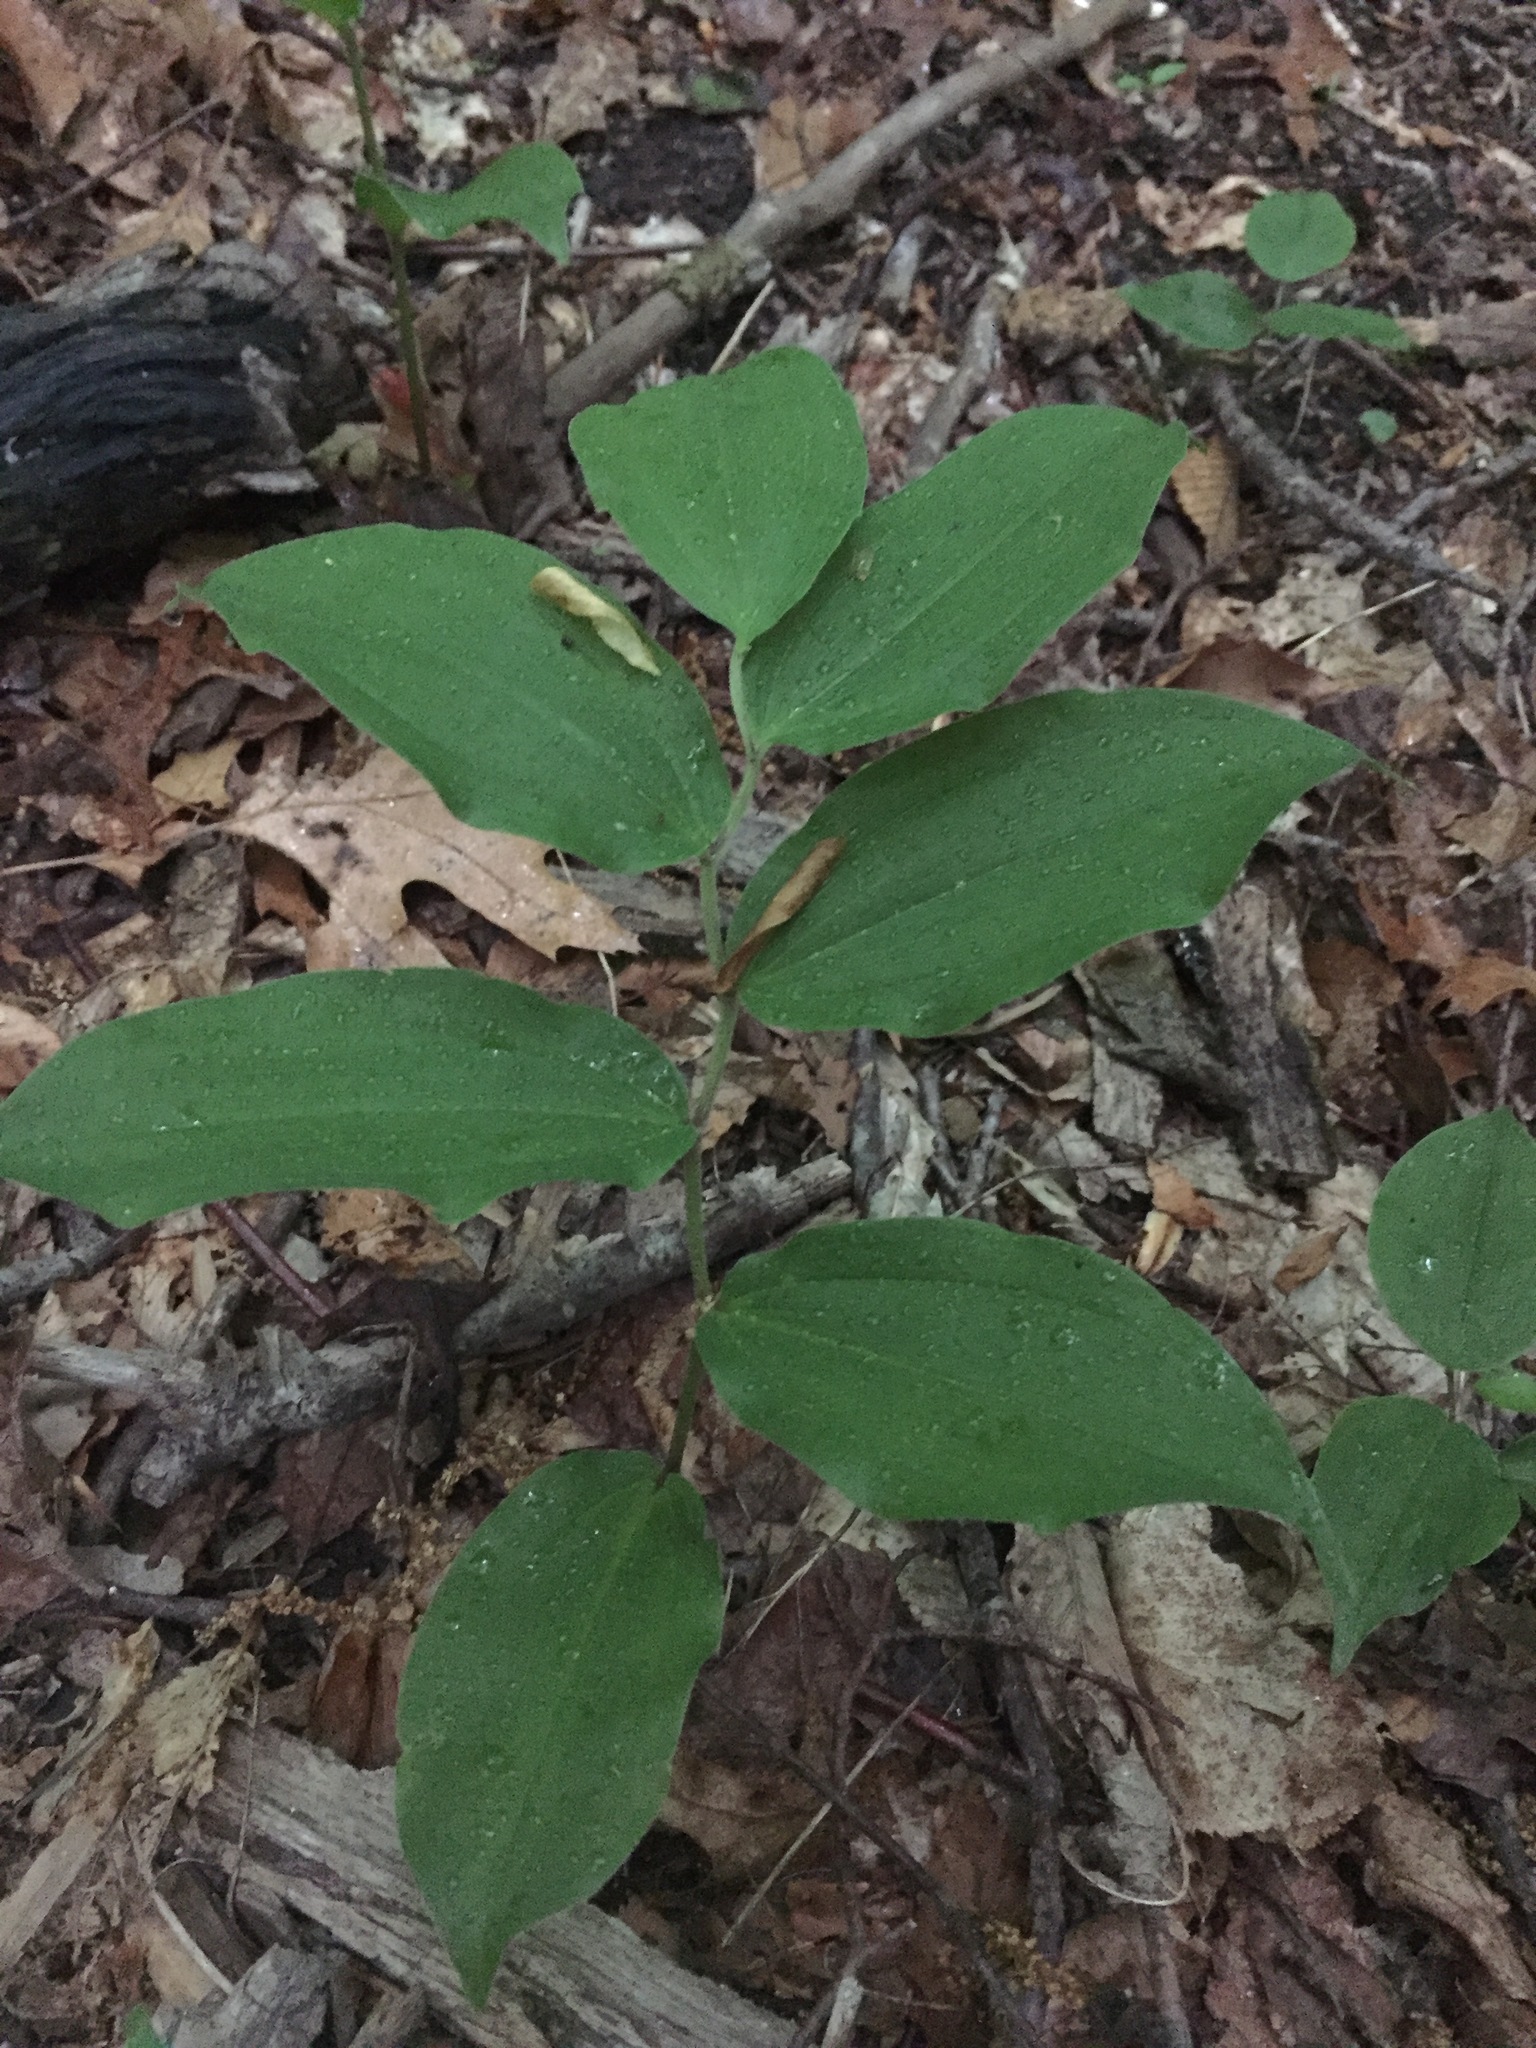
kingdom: Plantae
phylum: Tracheophyta
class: Liliopsida
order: Asparagales
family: Asparagaceae
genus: Maianthemum
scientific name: Maianthemum racemosum
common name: False spikenard
